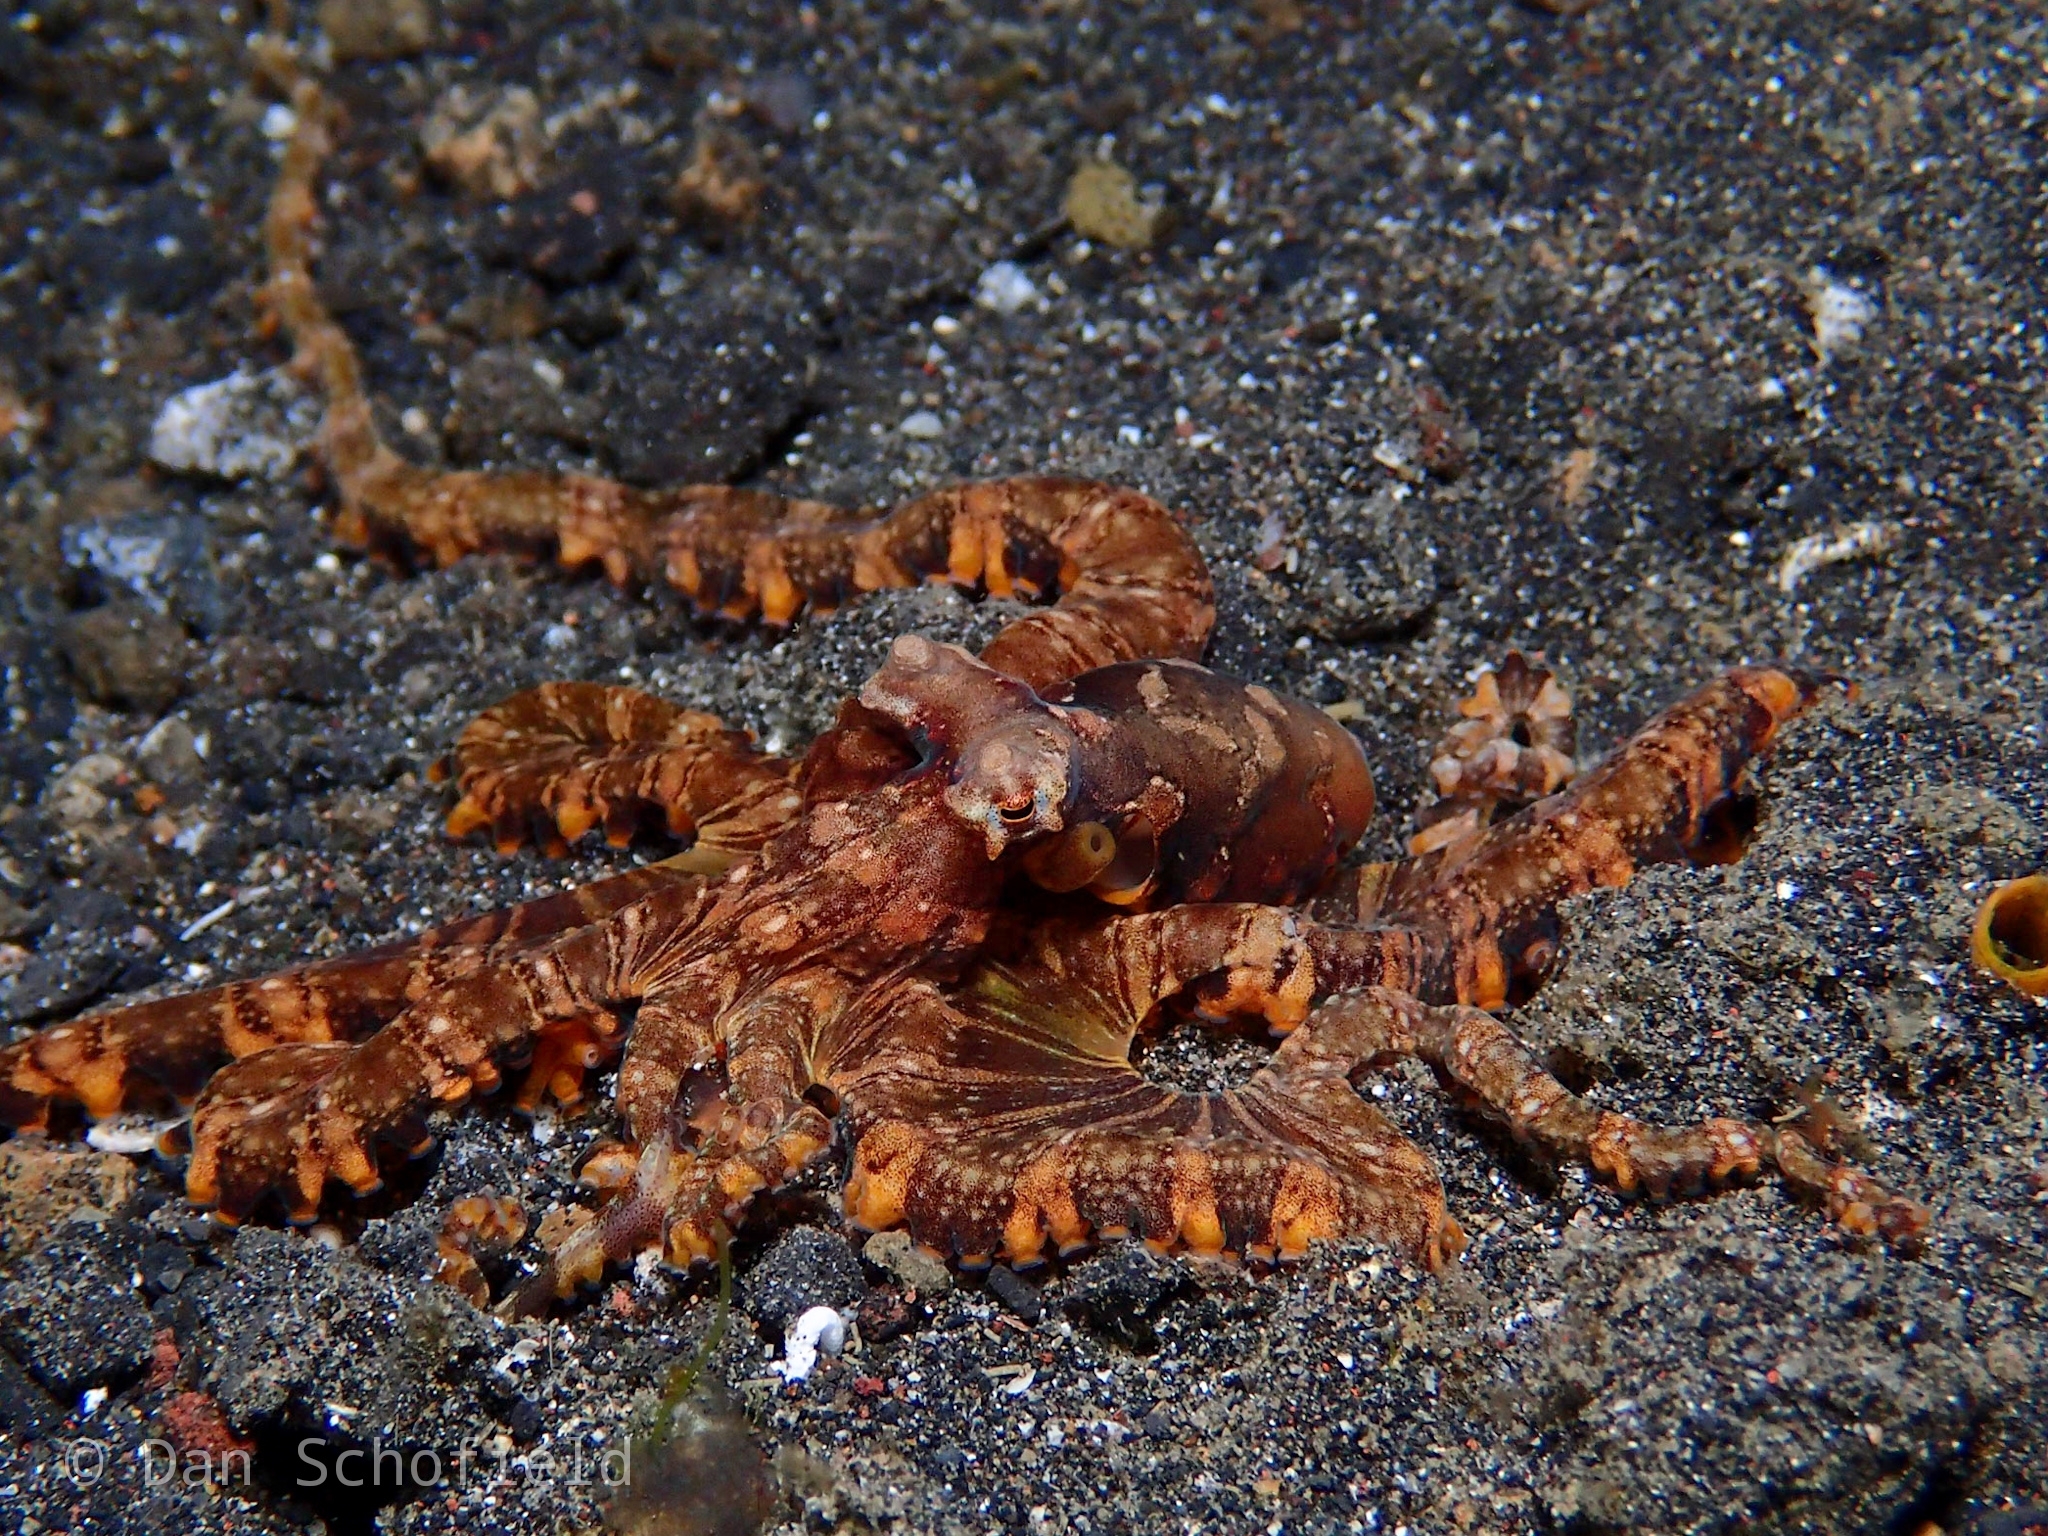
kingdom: Animalia
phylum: Mollusca
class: Cephalopoda
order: Octopoda
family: Octopodidae
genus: Wunderpus
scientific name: Wunderpus photogenicus
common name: Wunderpus
